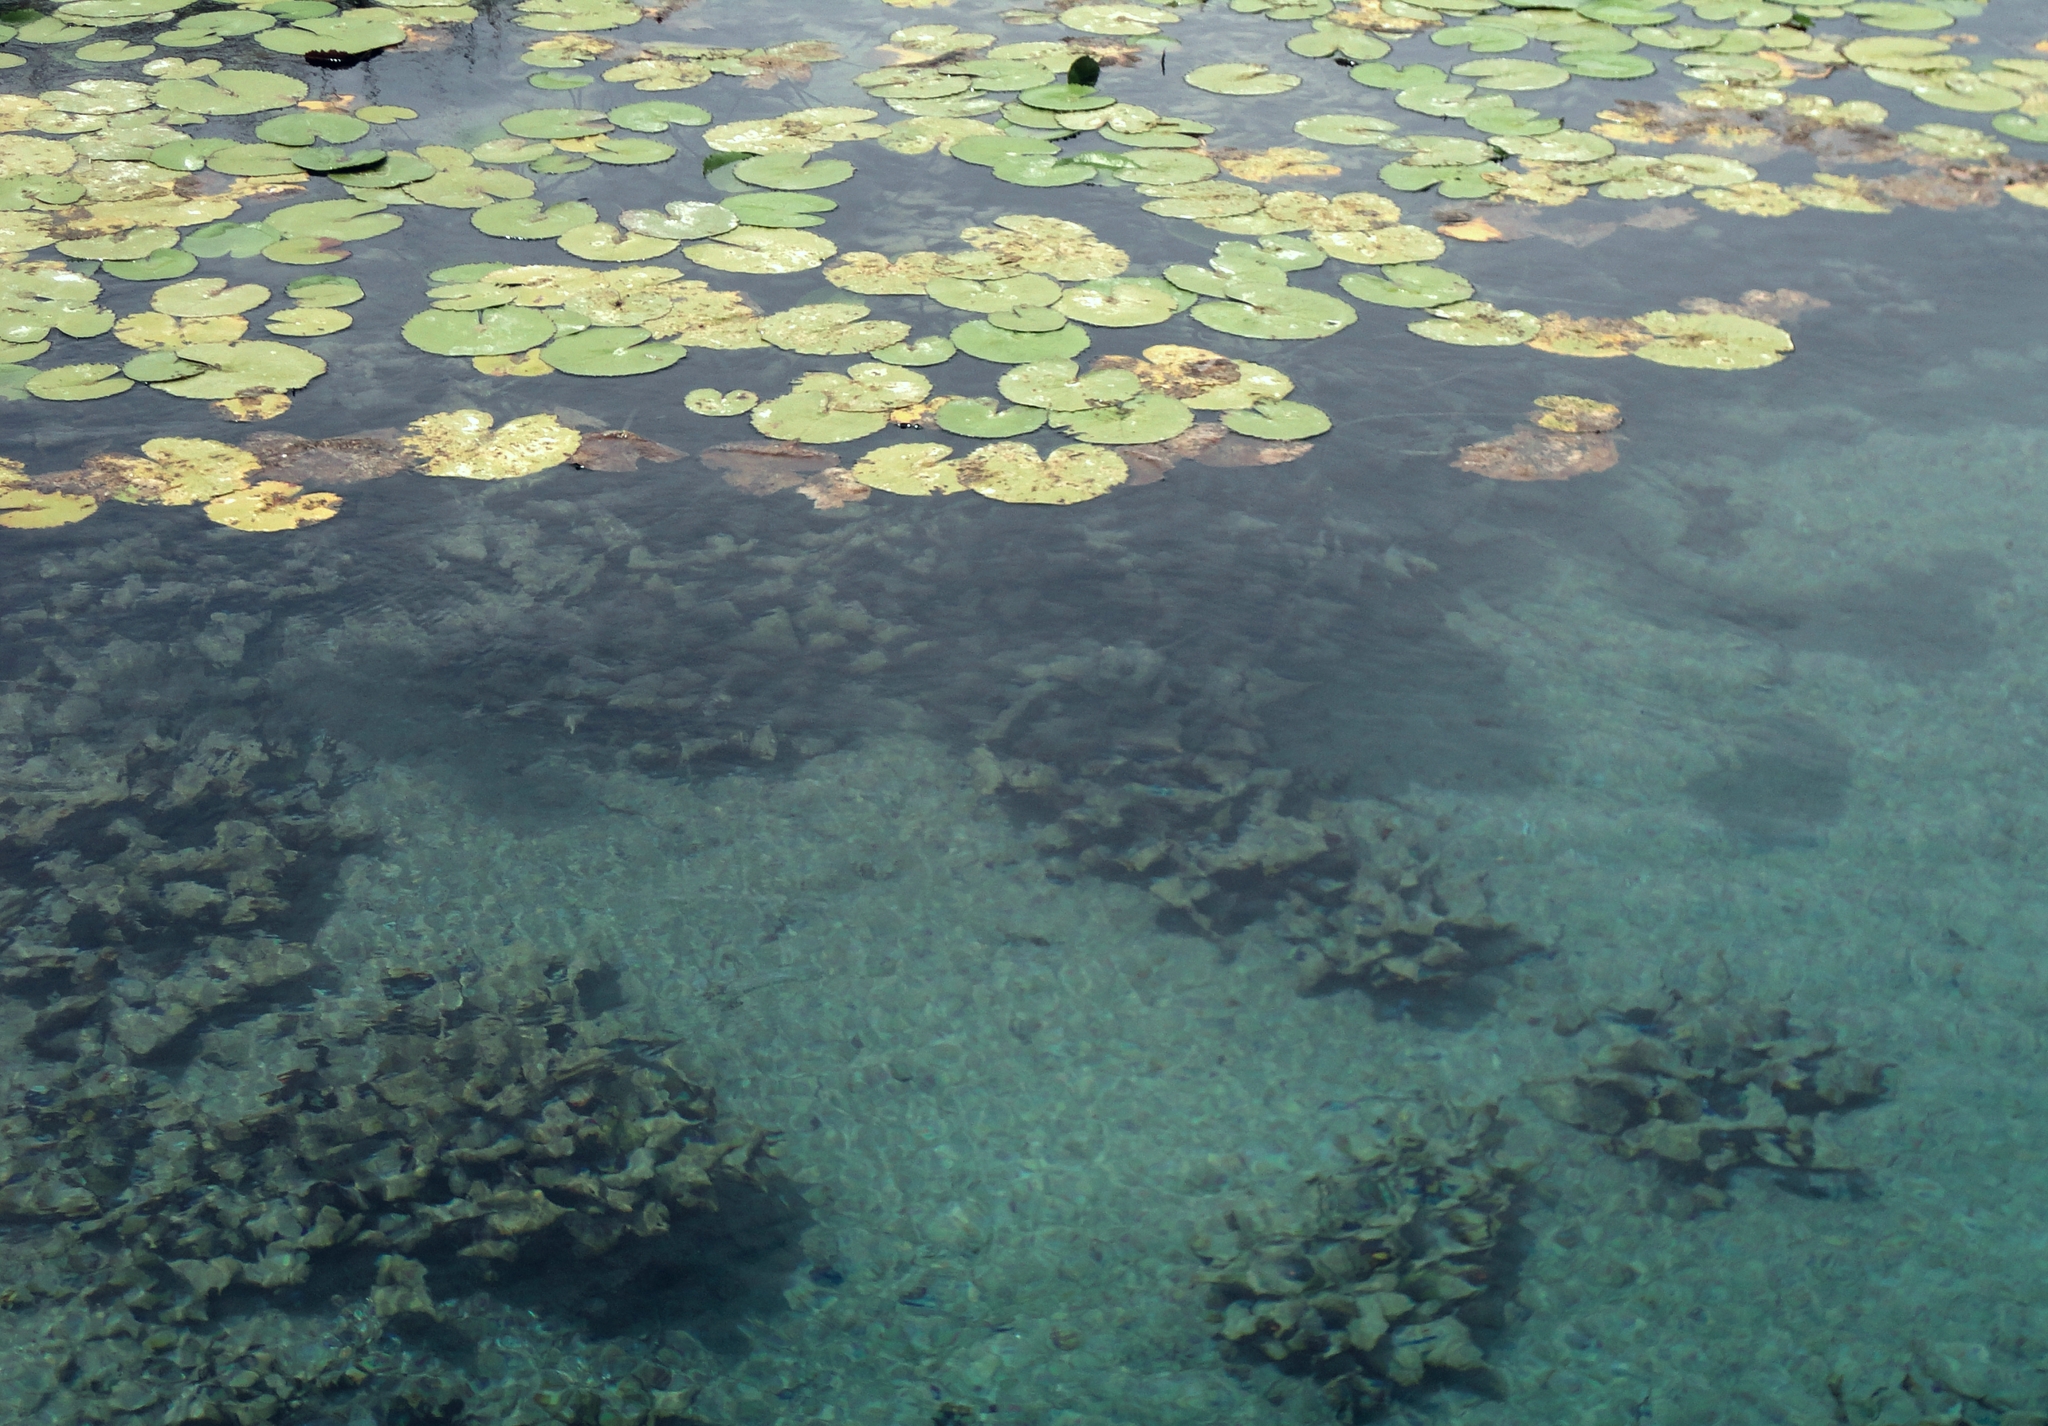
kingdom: Plantae
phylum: Tracheophyta
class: Magnoliopsida
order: Nymphaeales
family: Nymphaeaceae
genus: Nymphaea
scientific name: Nymphaea ampla
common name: Dotleaf waterlily
